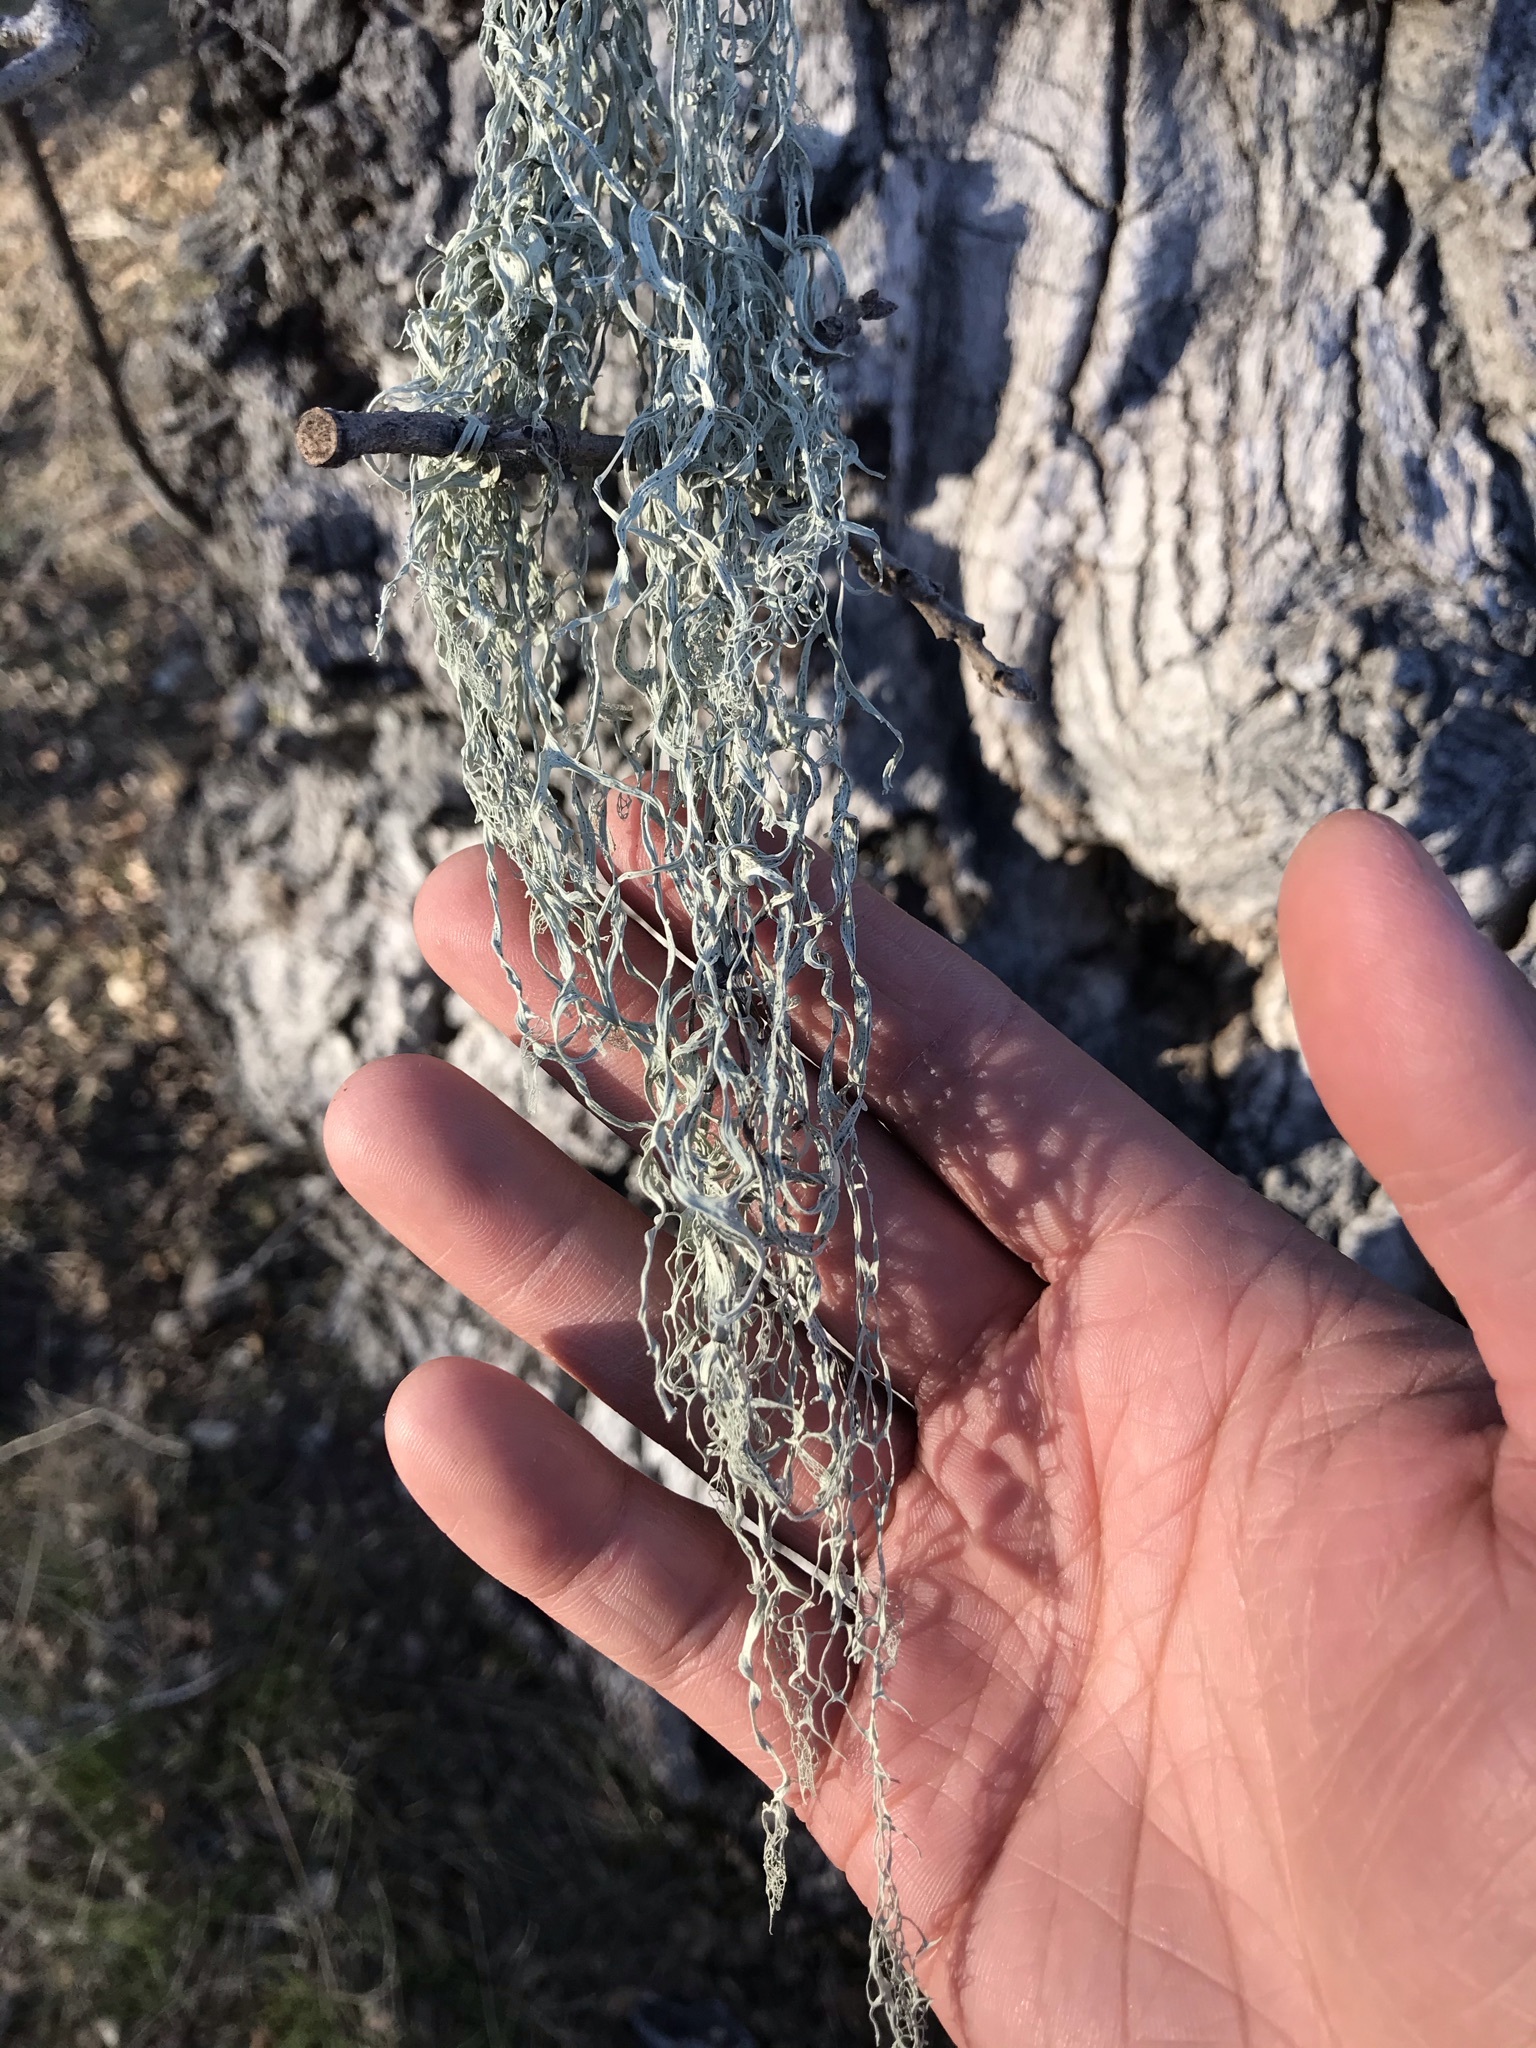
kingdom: Fungi
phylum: Ascomycota
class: Lecanoromycetes
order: Lecanorales
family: Ramalinaceae
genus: Ramalina
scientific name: Ramalina menziesii
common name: Lace lichen
